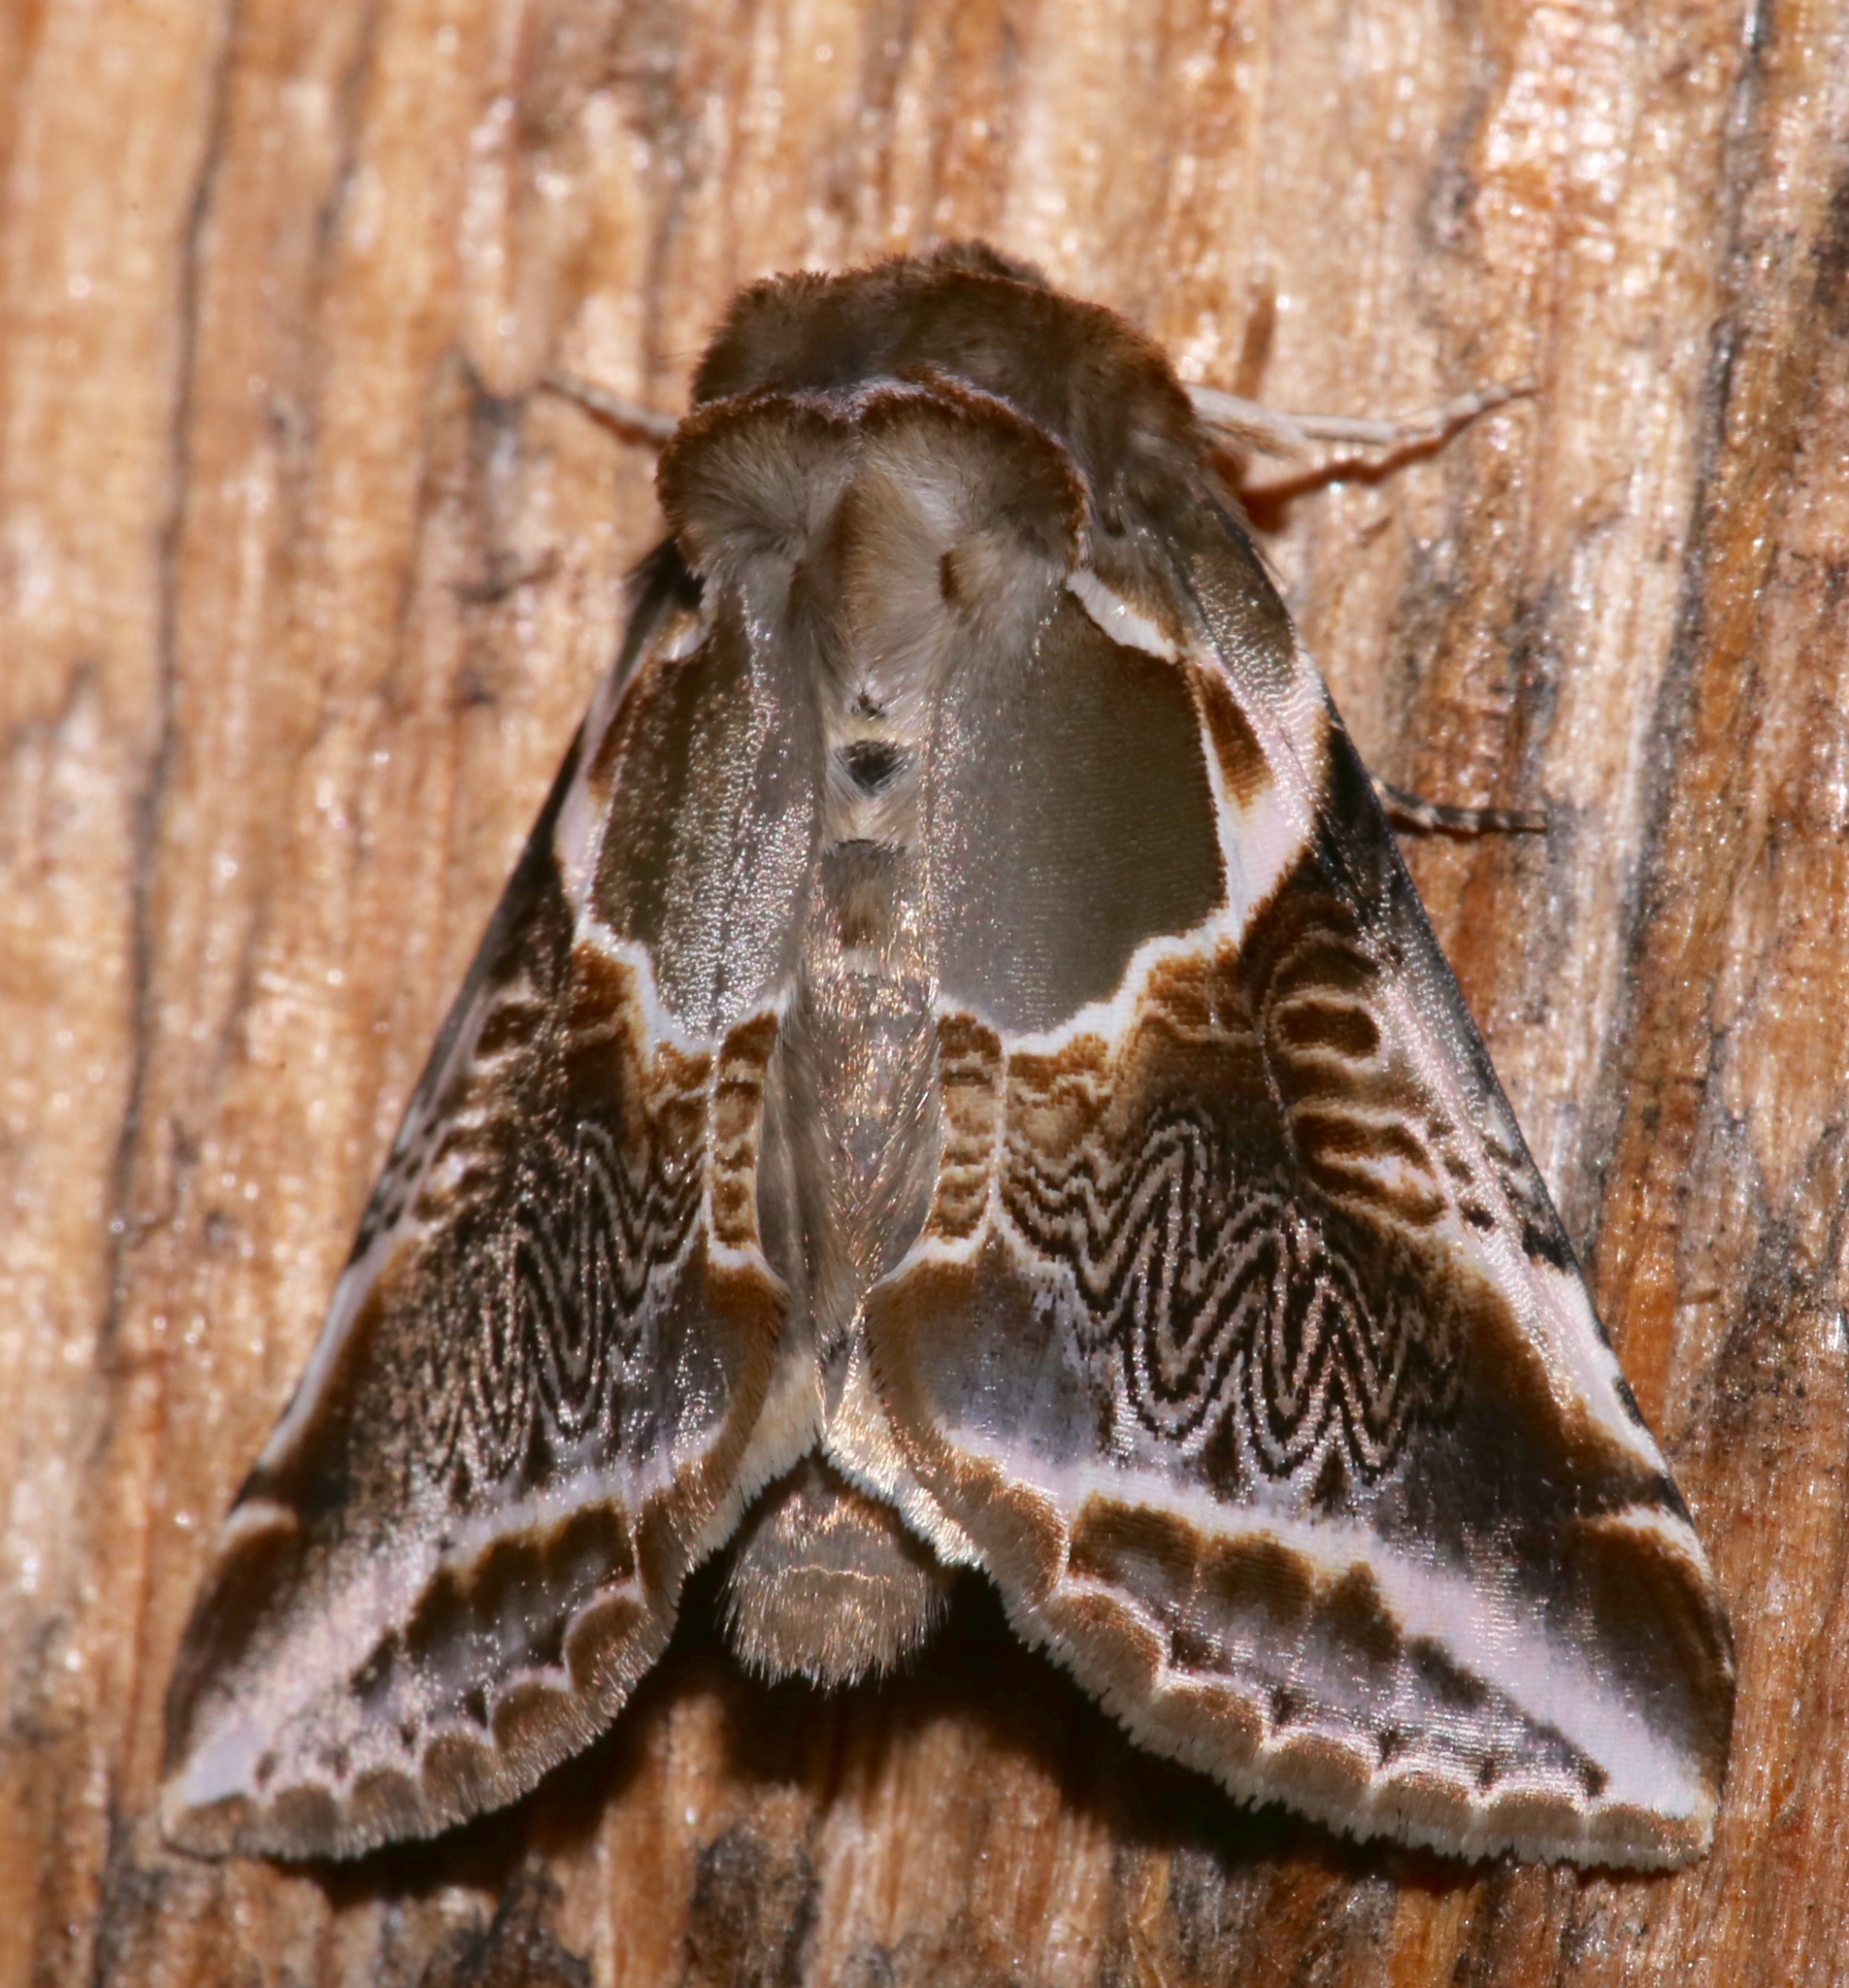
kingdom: Animalia
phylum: Arthropoda
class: Insecta
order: Lepidoptera
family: Drepanidae
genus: Habrosyne
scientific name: Habrosyne scripta
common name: Lettered habrosyne moth
